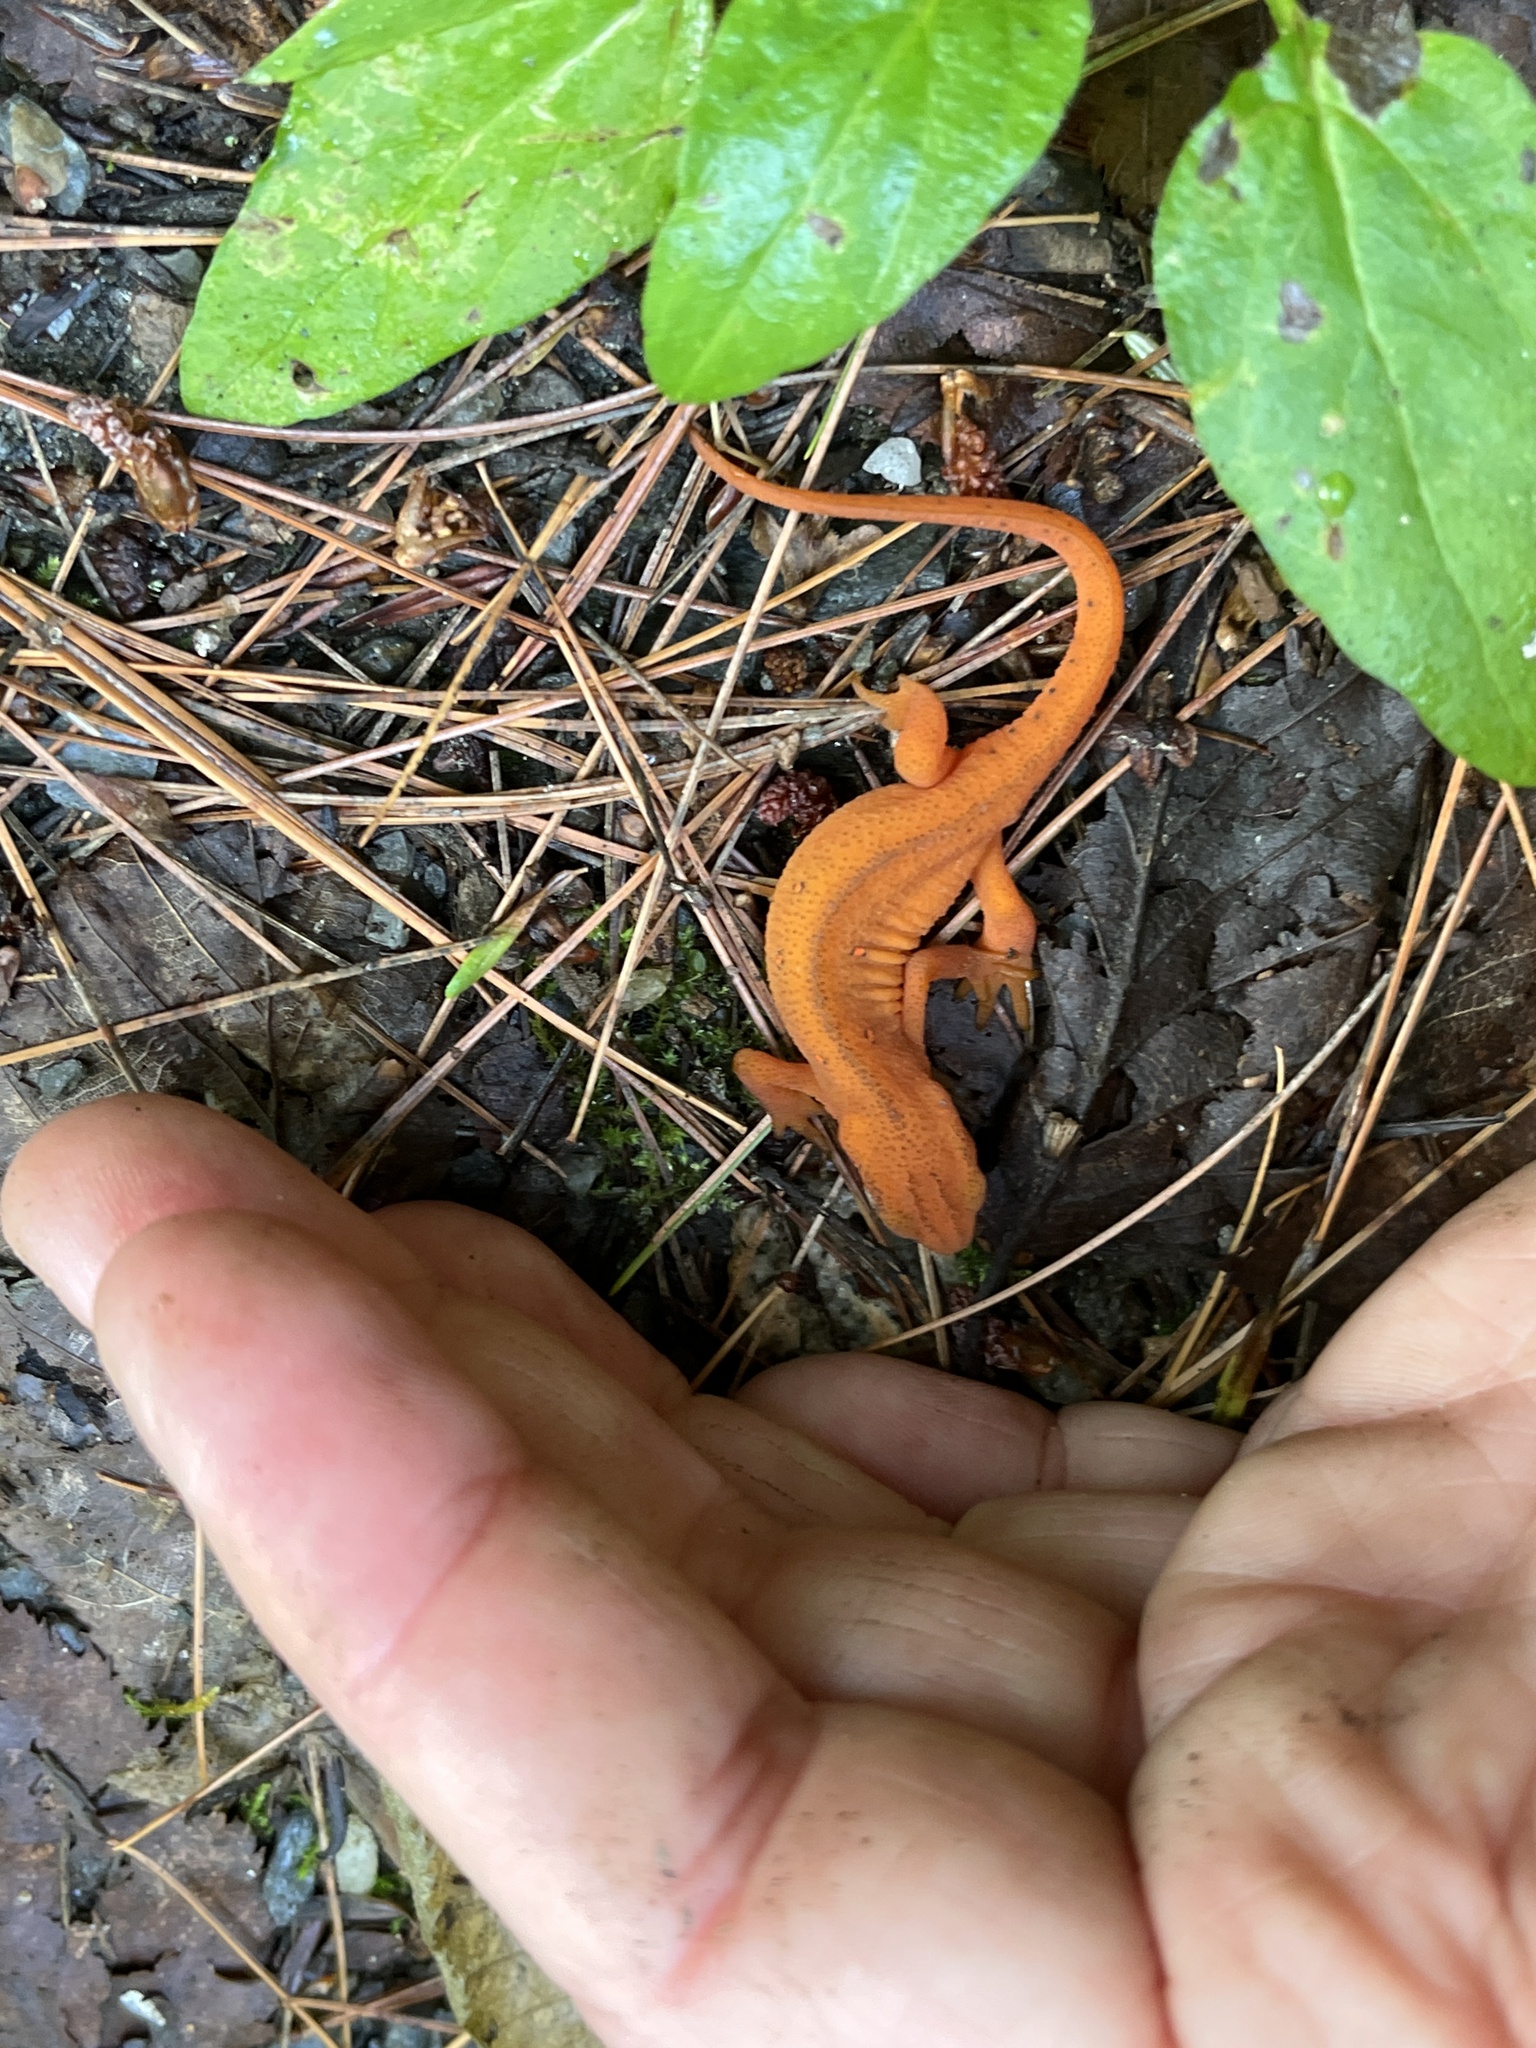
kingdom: Animalia
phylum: Chordata
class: Amphibia
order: Caudata
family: Salamandridae
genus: Notophthalmus
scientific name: Notophthalmus viridescens
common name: Eastern newt
